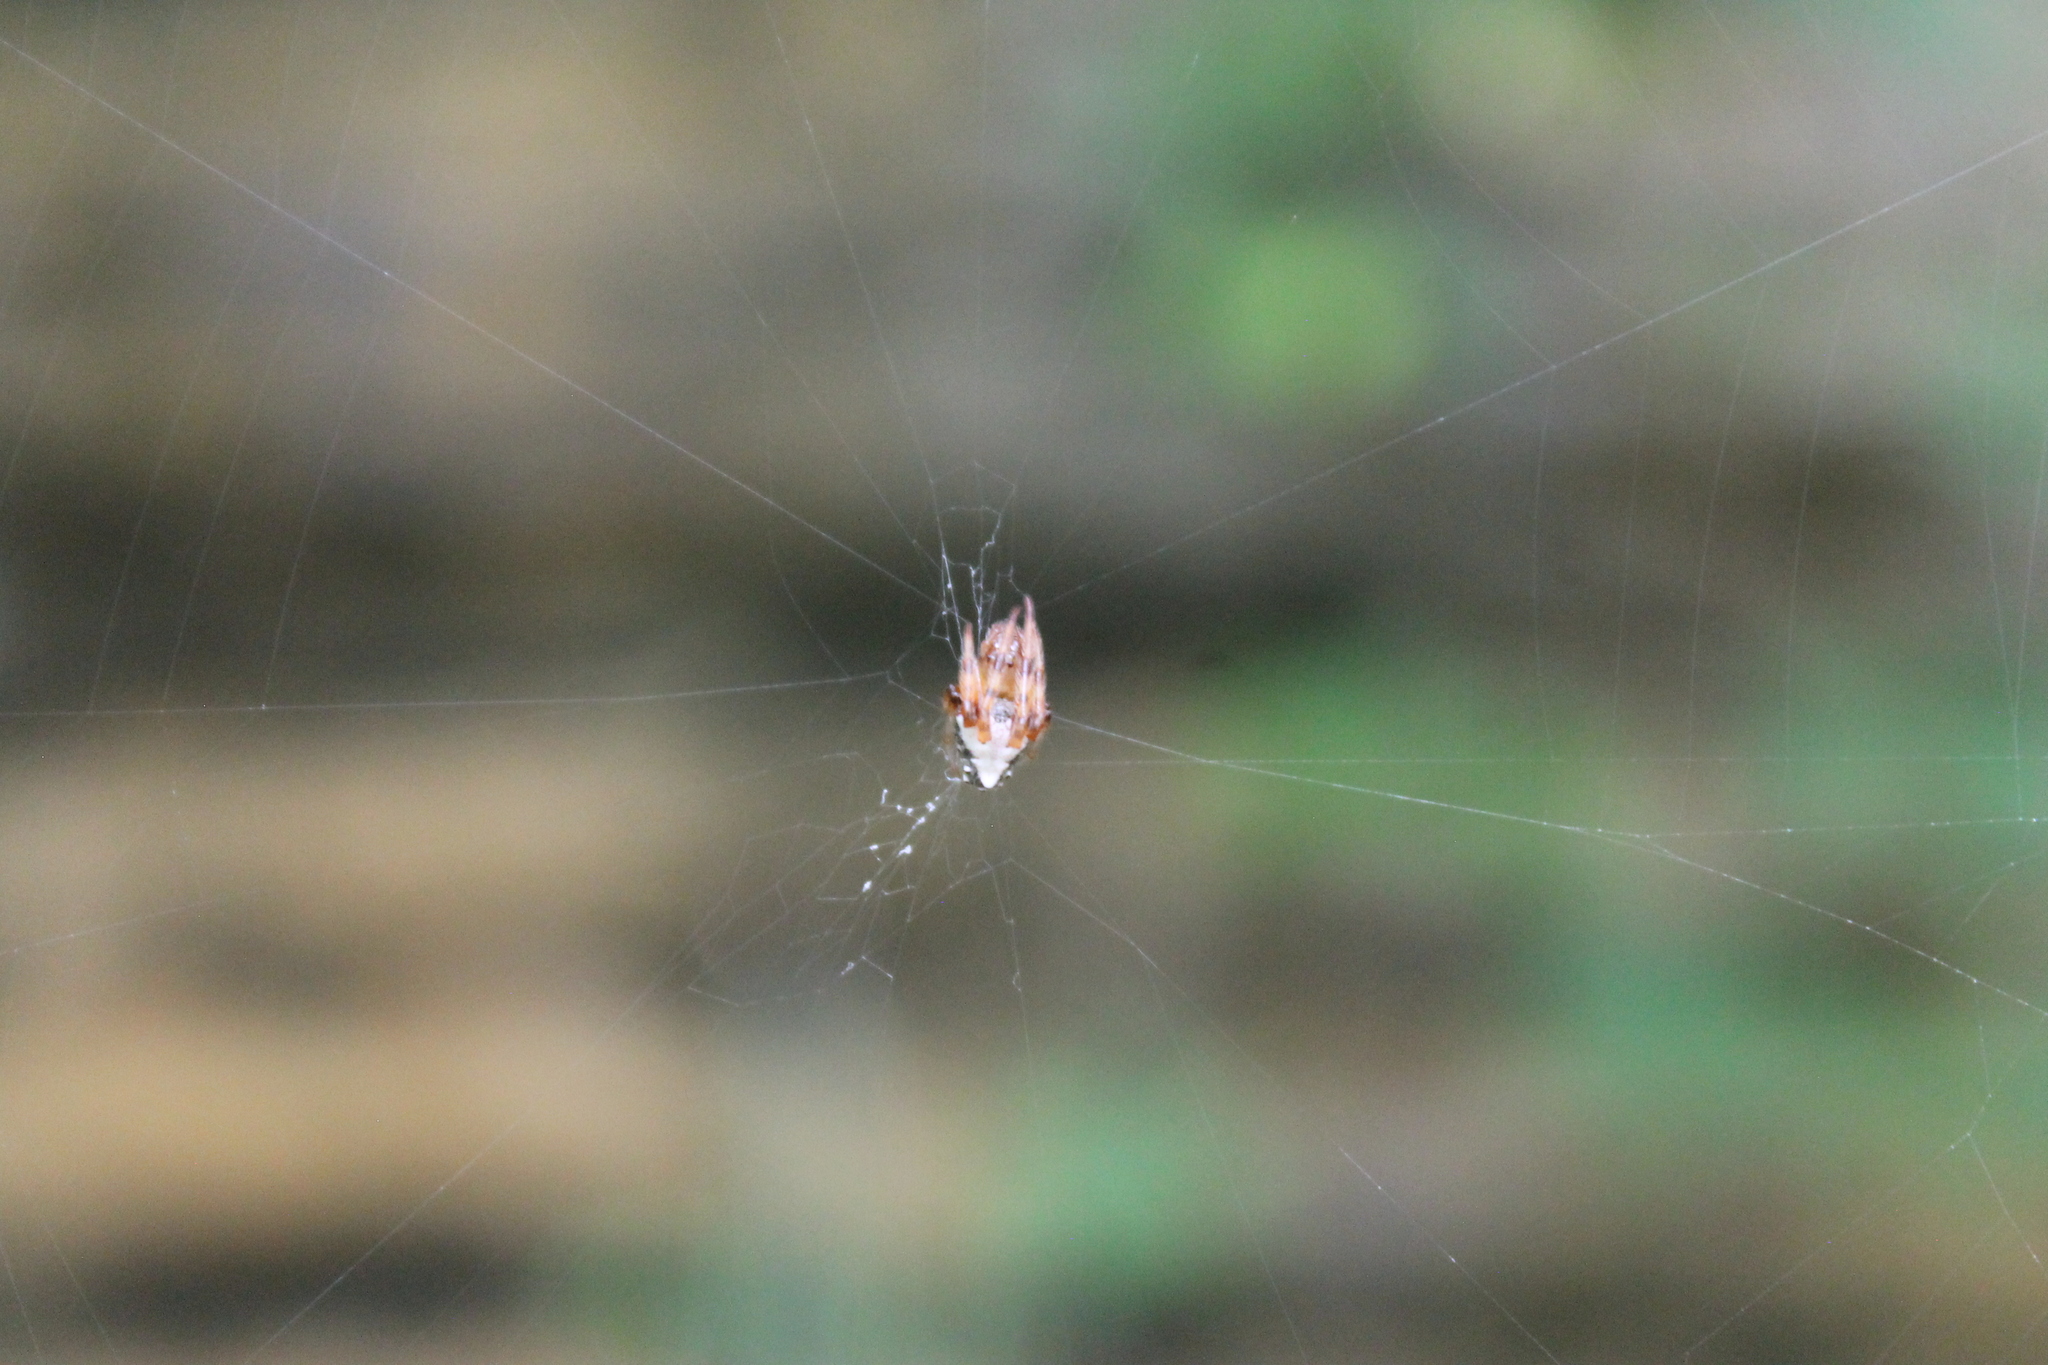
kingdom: Animalia
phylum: Arthropoda
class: Arachnida
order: Araneae
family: Araneidae
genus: Verrucosa
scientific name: Verrucosa arenata
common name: Orb weavers
